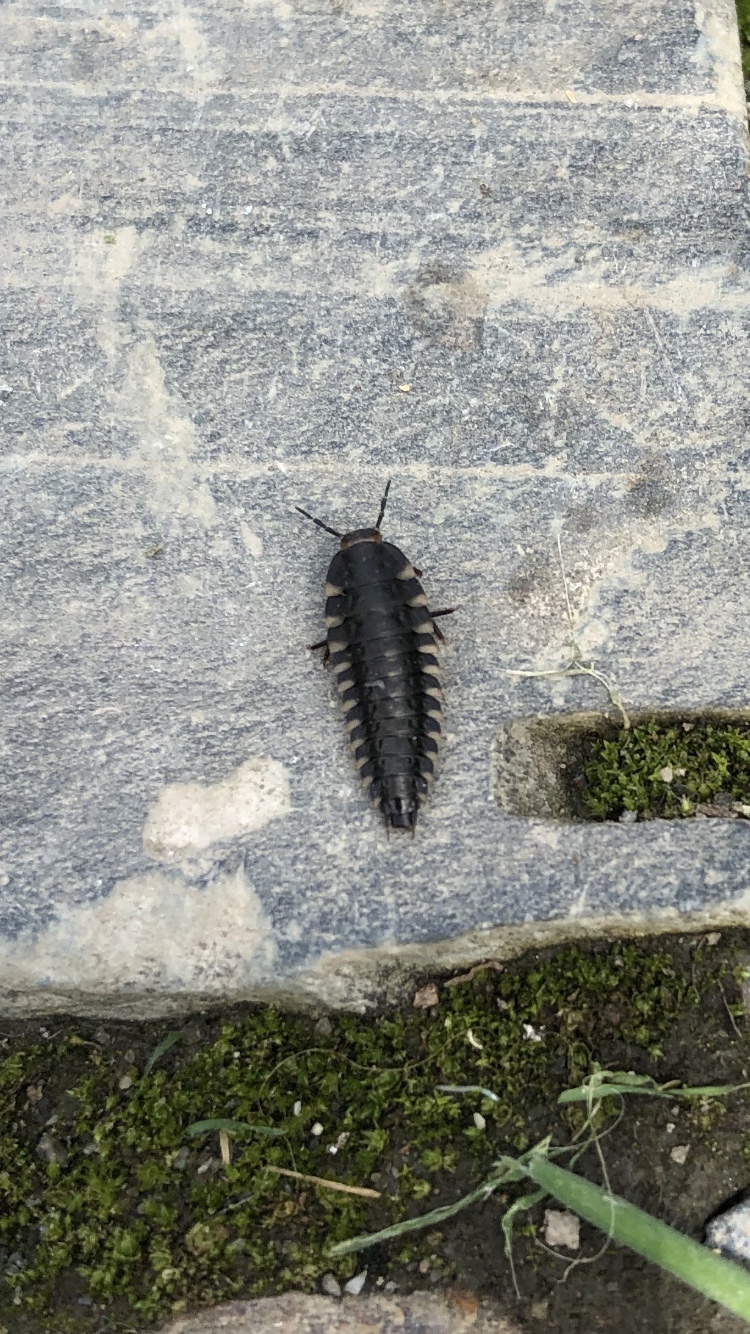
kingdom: Animalia
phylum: Arthropoda
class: Insecta
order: Coleoptera
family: Staphylinidae
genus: Silpha
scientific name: Silpha tristis
